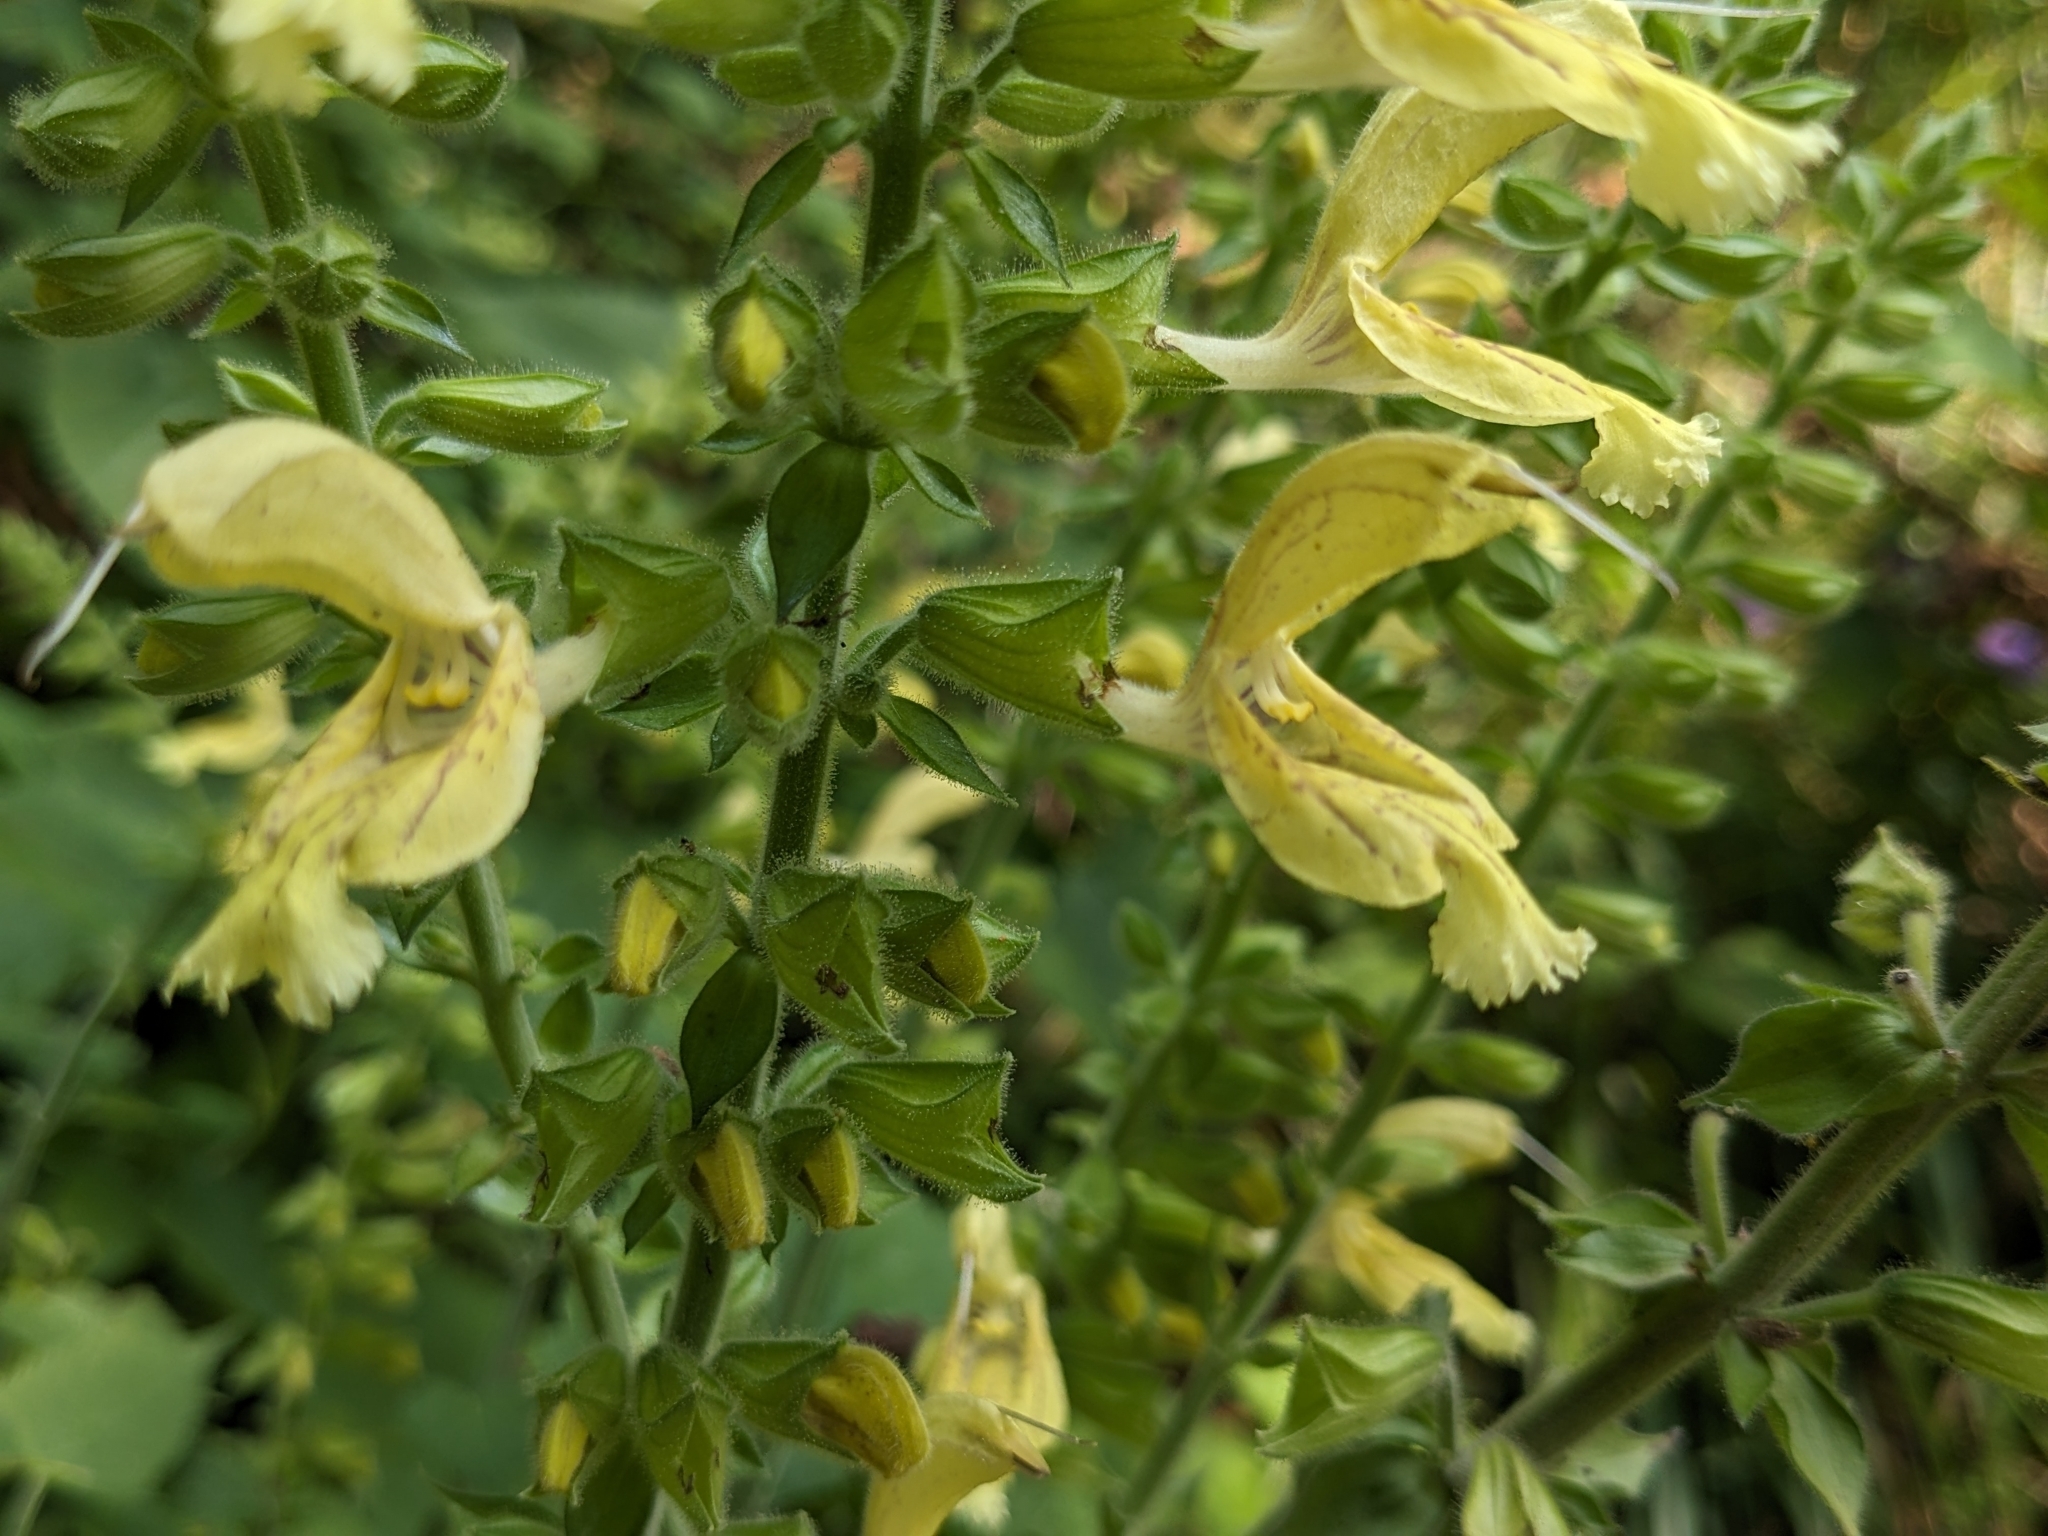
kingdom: Plantae
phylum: Tracheophyta
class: Magnoliopsida
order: Lamiales
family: Lamiaceae
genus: Salvia
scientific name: Salvia glutinosa
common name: Sticky clary
